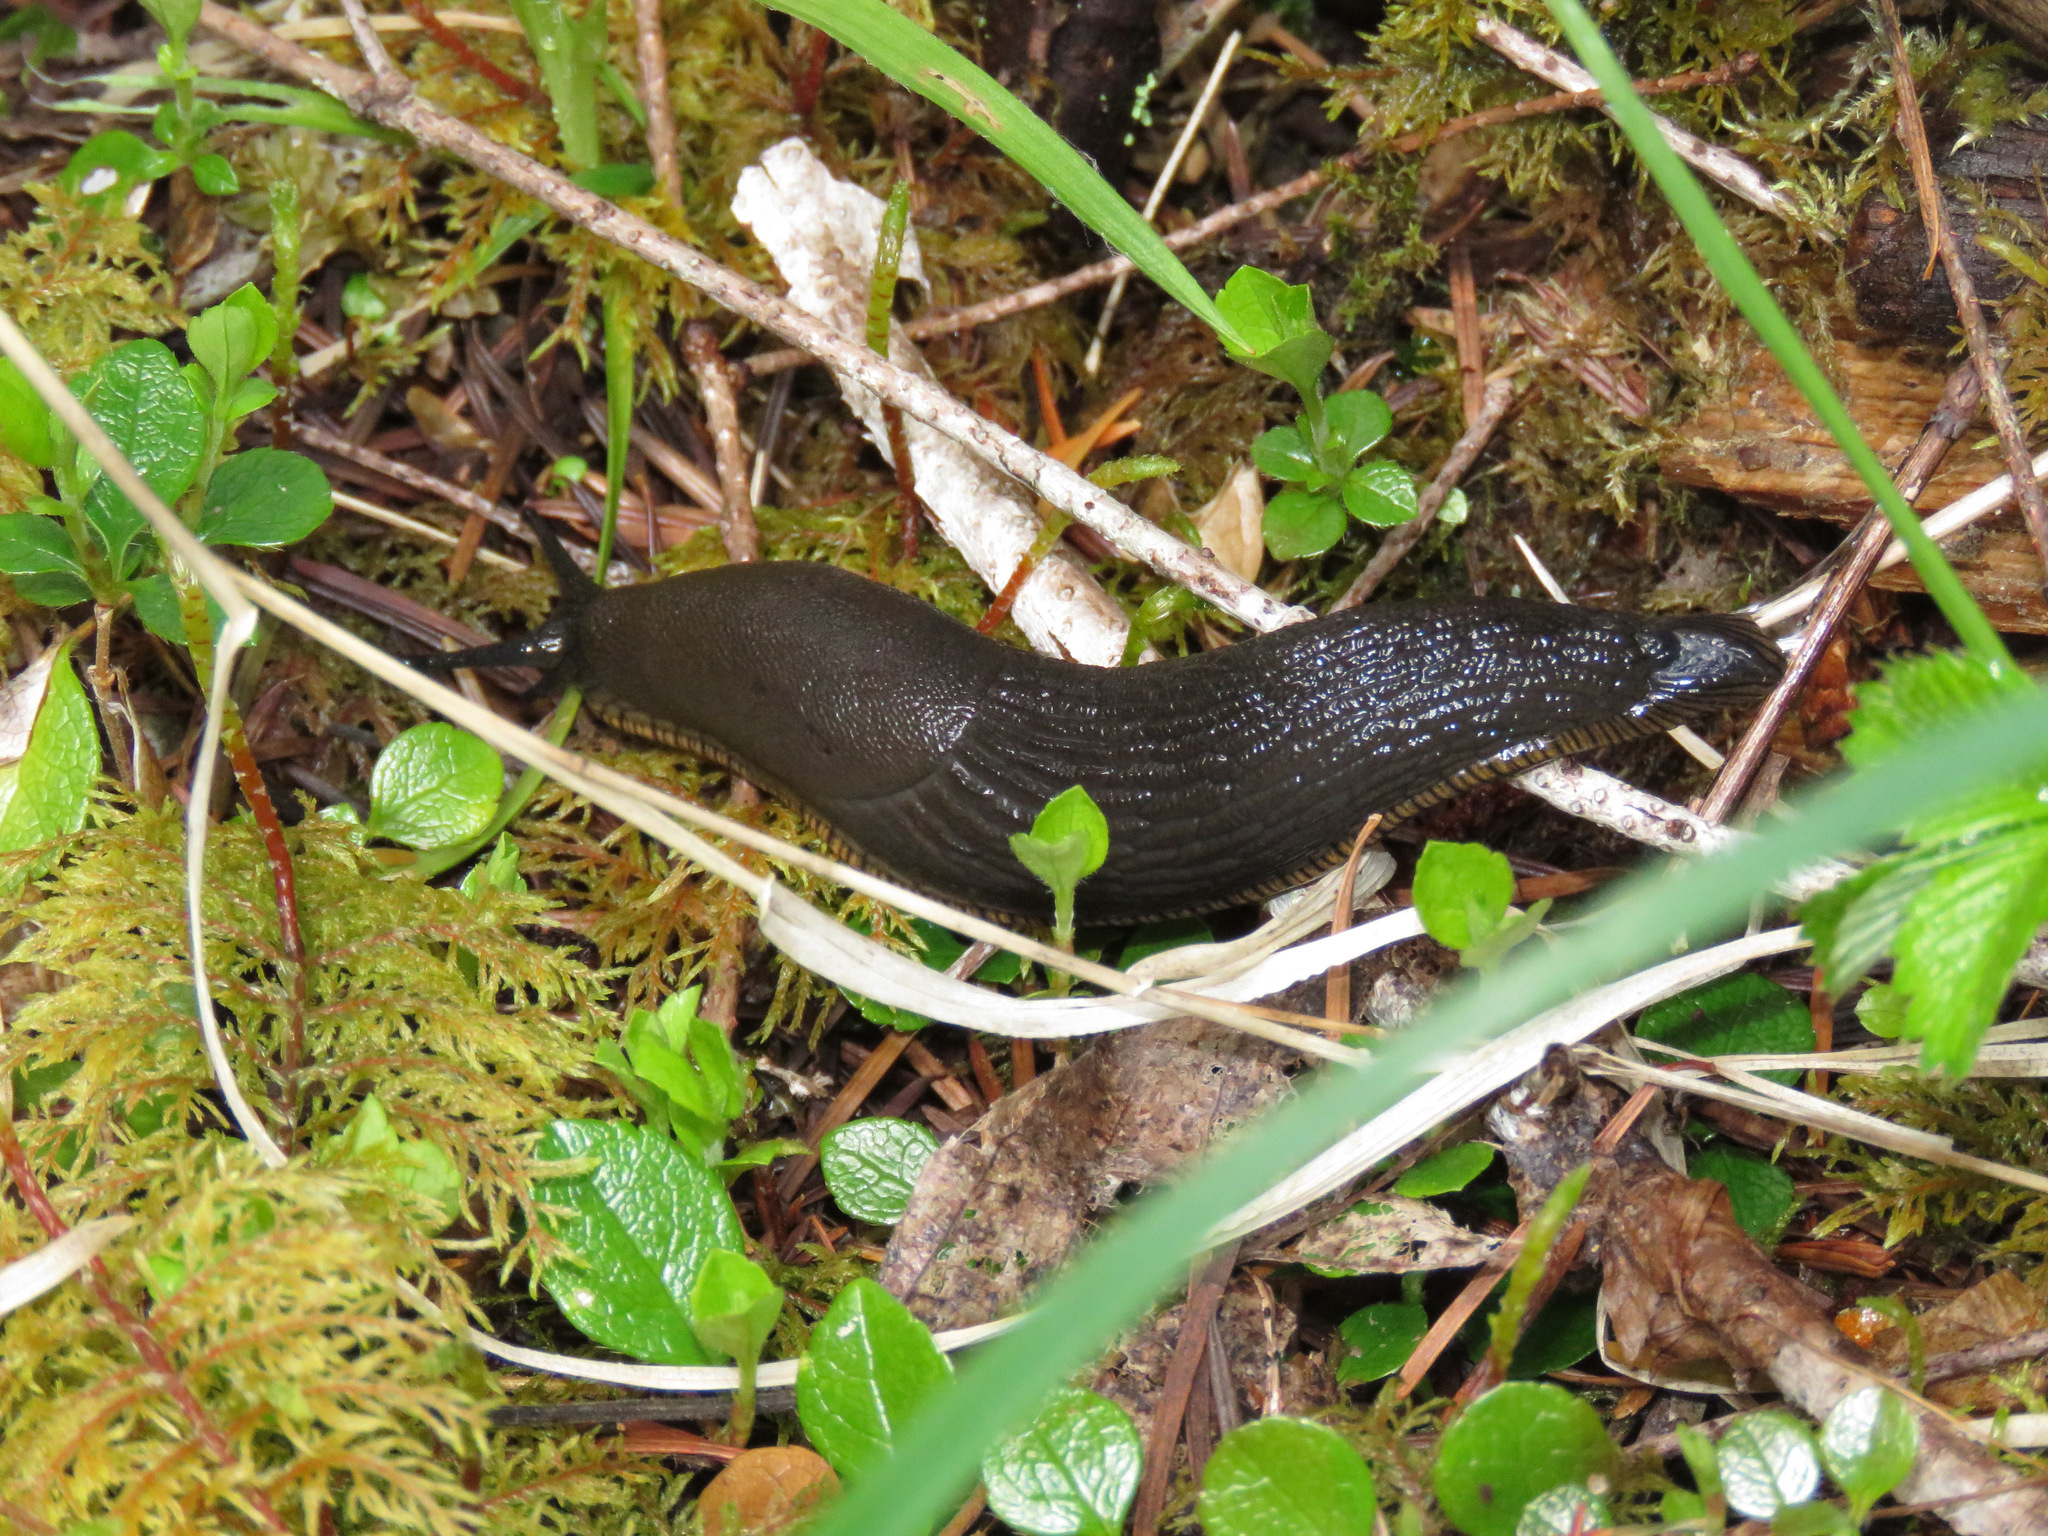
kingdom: Animalia
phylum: Mollusca
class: Gastropoda
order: Stylommatophora
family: Arionidae
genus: Arion
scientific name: Arion
